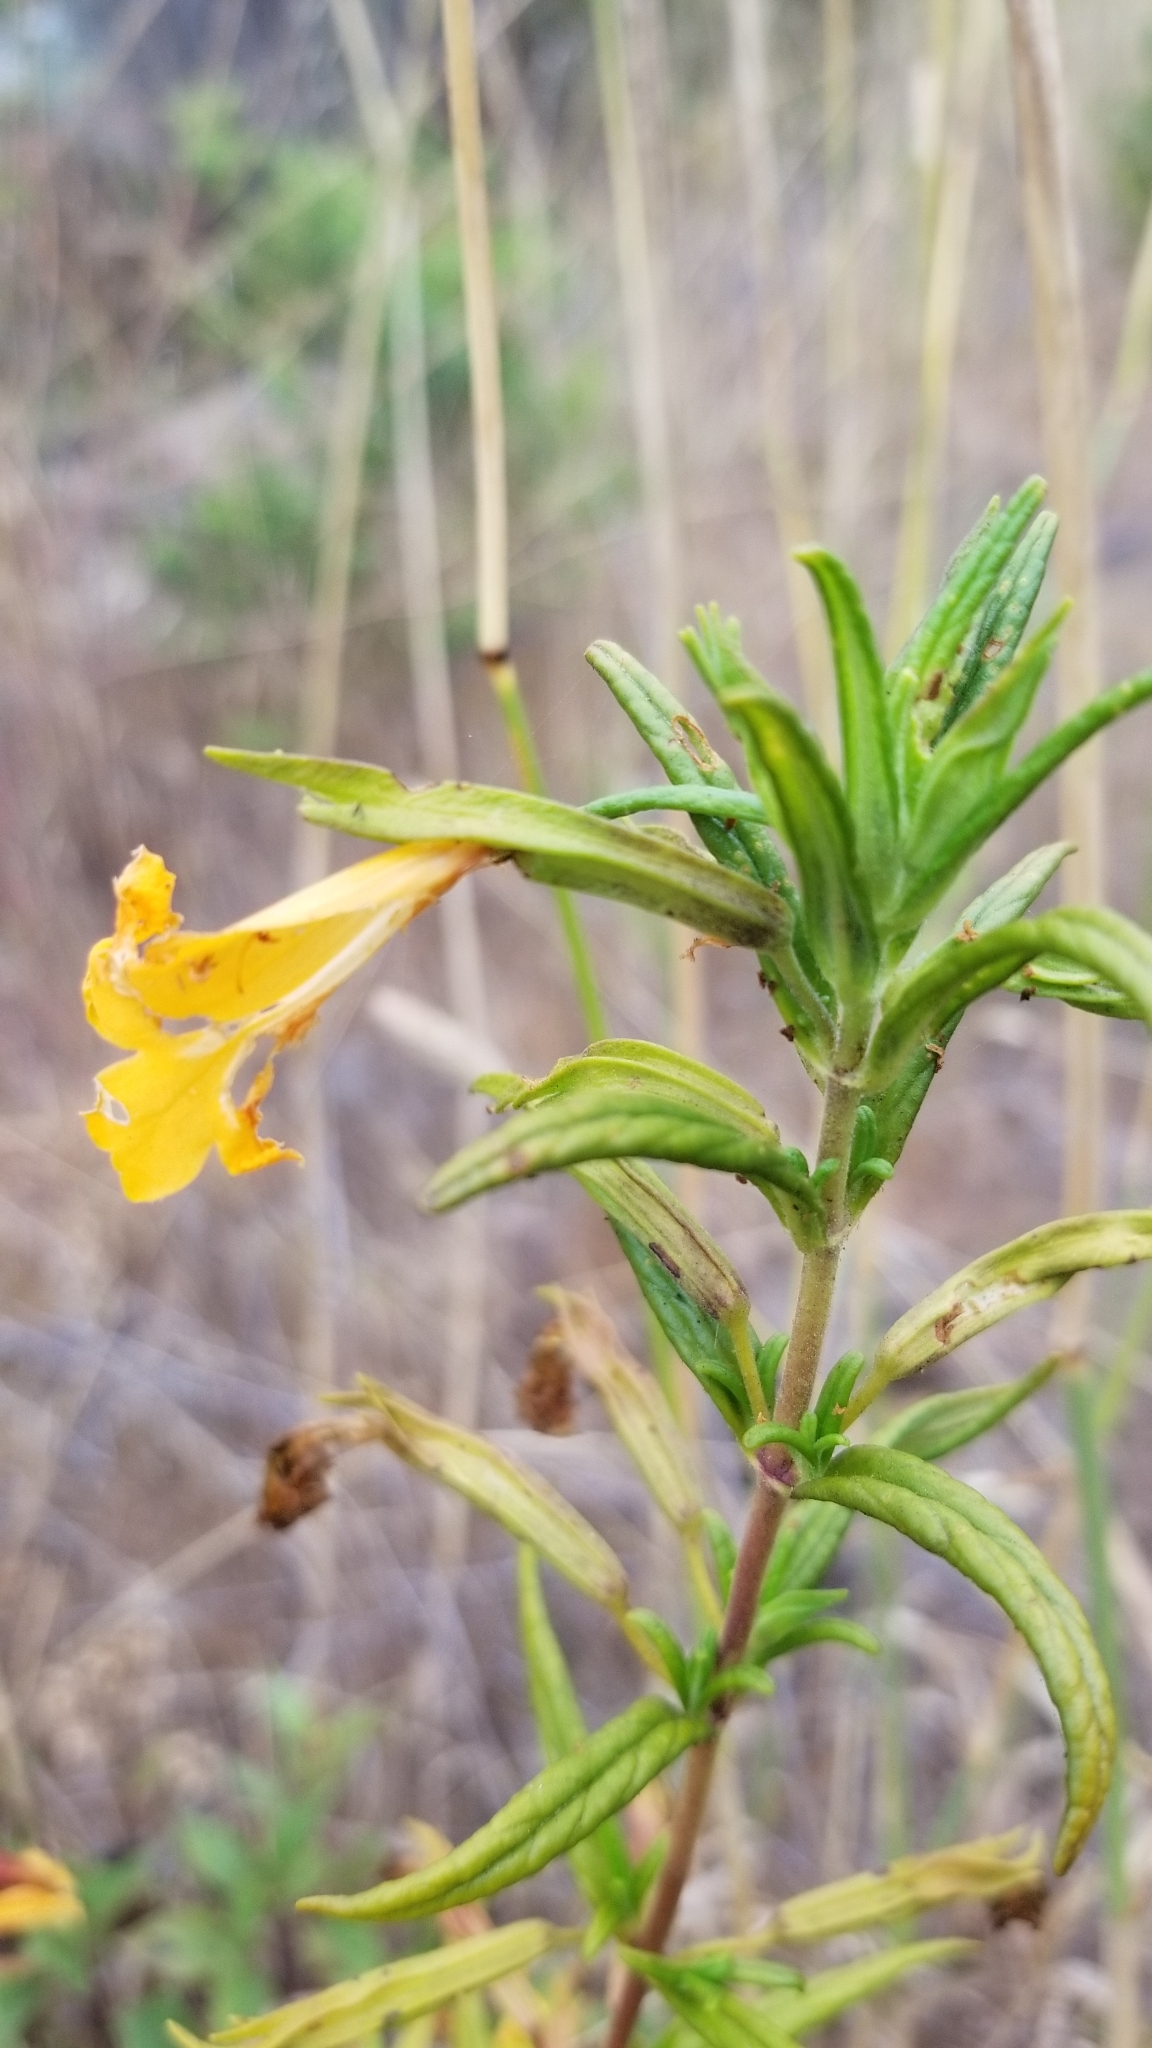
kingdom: Plantae
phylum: Tracheophyta
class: Magnoliopsida
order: Lamiales
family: Phrymaceae
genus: Diplacus
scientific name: Diplacus aurantiacus
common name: Bush monkey-flower
